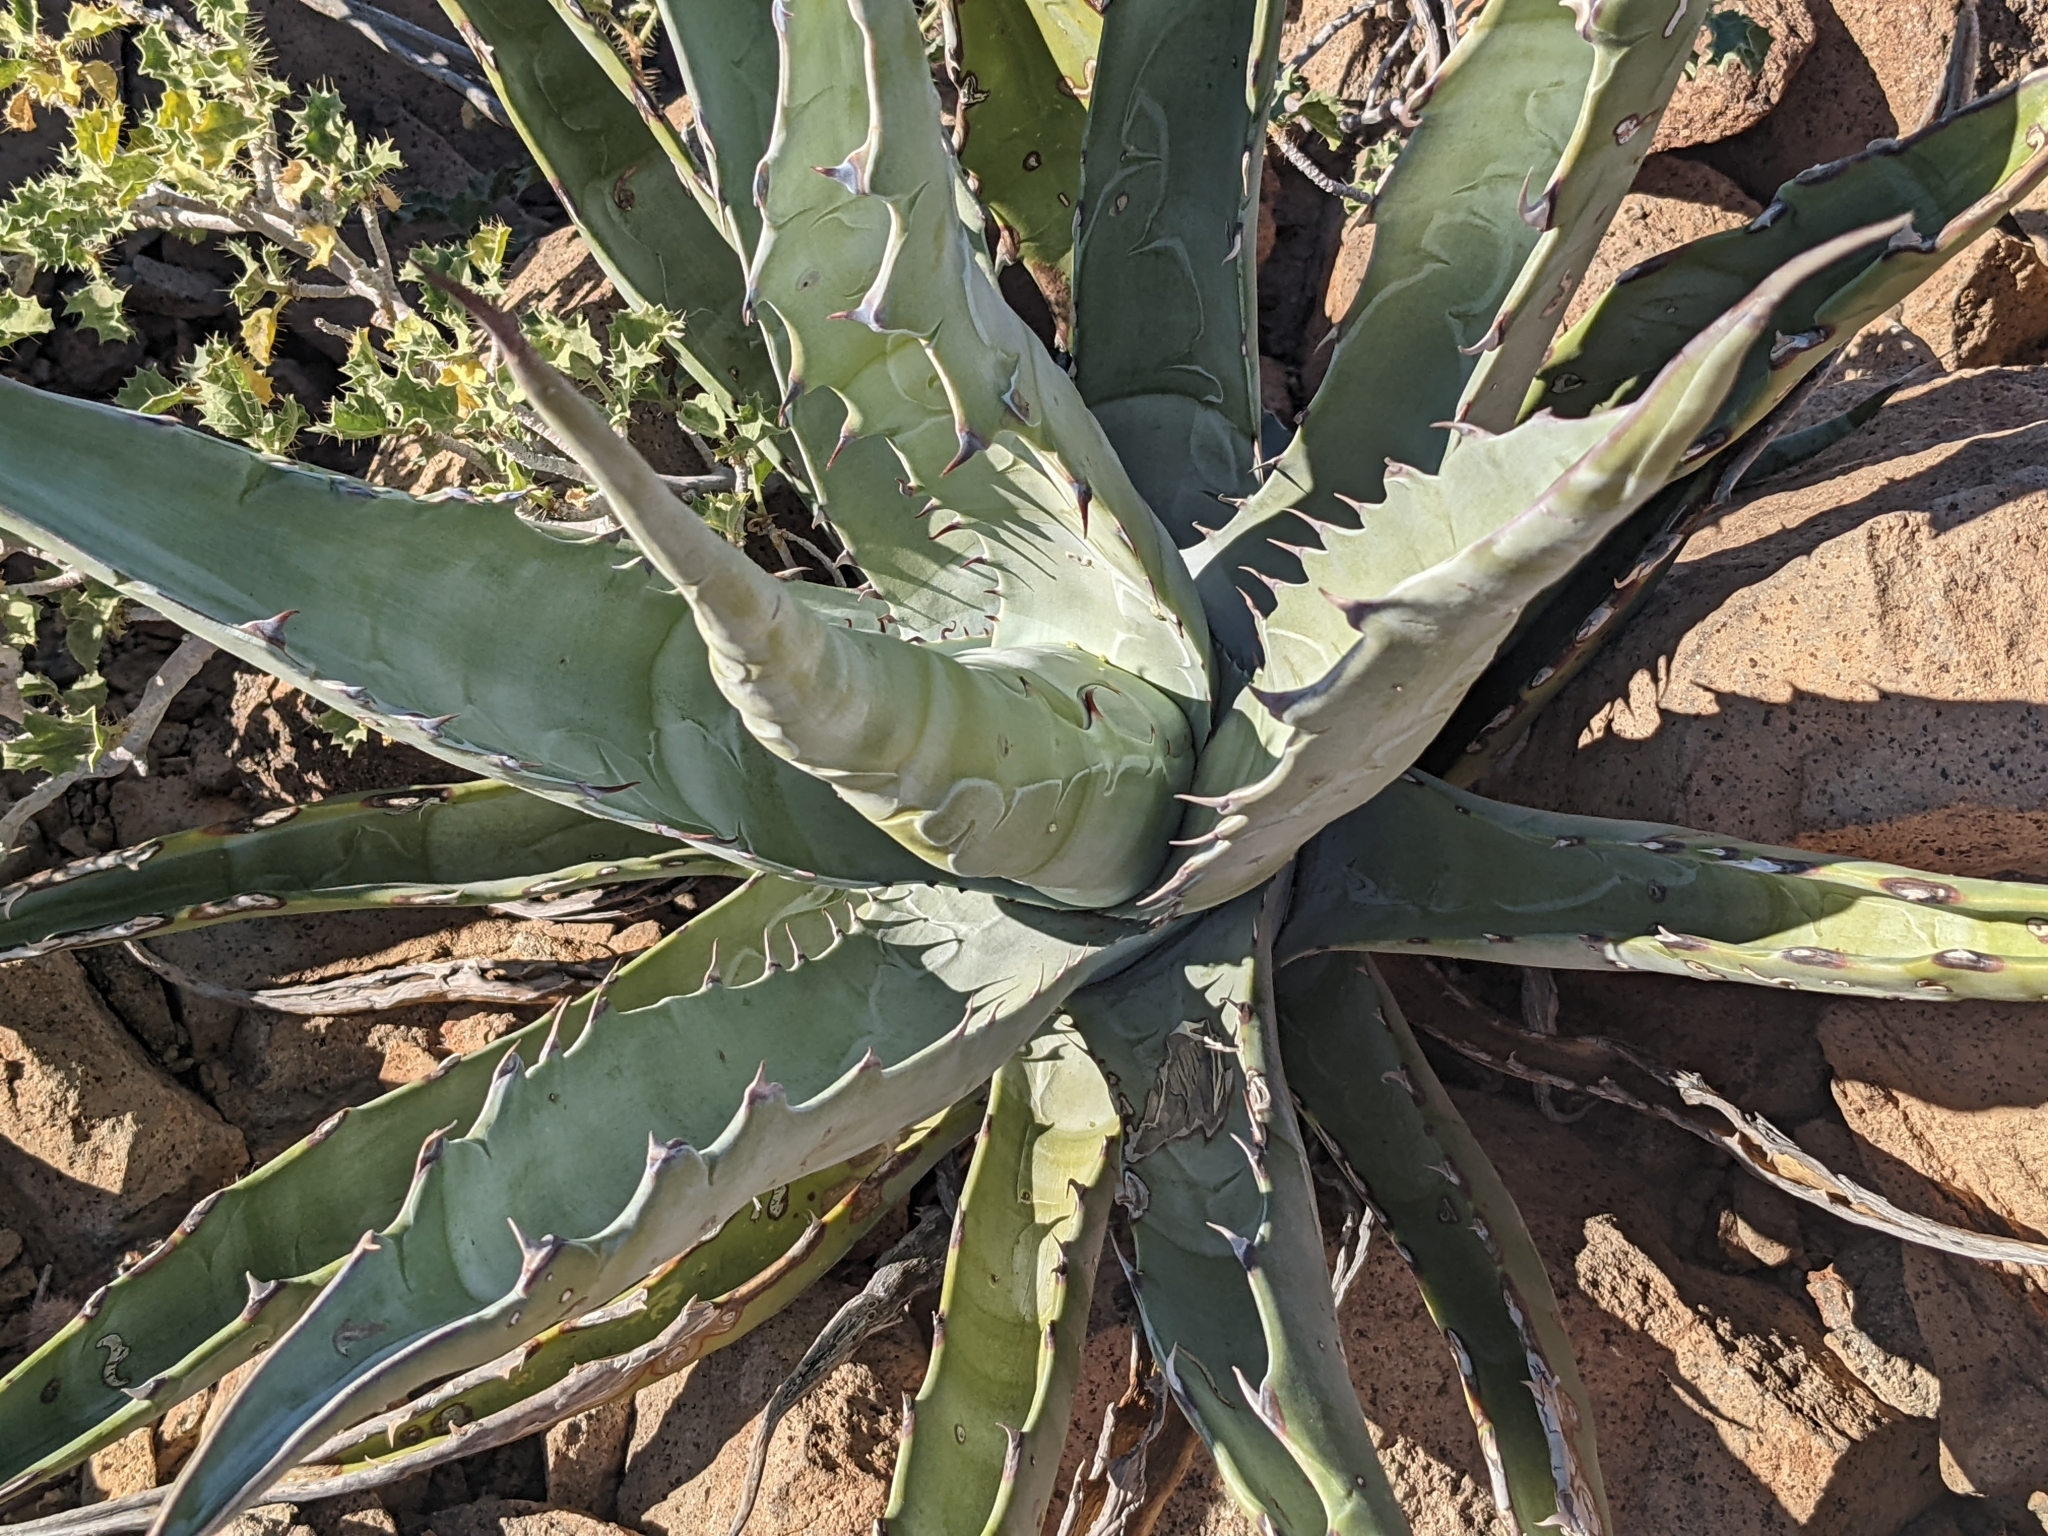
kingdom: Plantae
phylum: Tracheophyta
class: Liliopsida
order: Asparagales
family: Asparagaceae
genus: Agave
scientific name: Agave sobria
